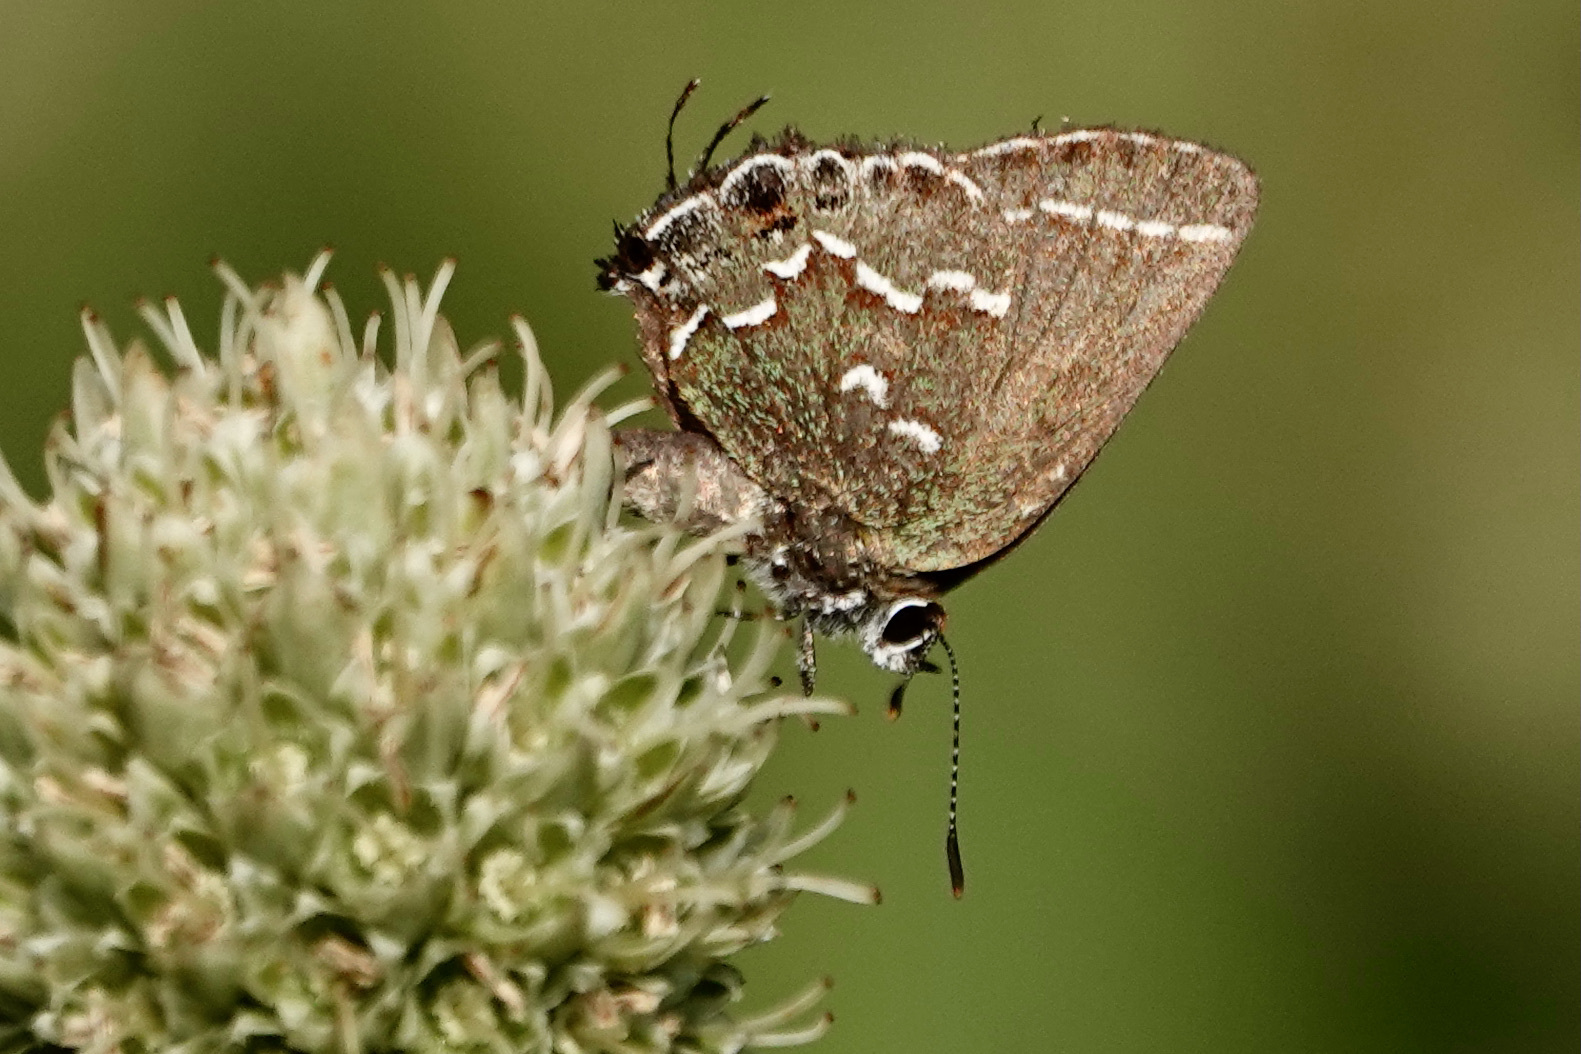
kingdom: Animalia
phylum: Arthropoda
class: Insecta
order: Lepidoptera
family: Lycaenidae
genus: Mitoura
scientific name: Mitoura gryneus
